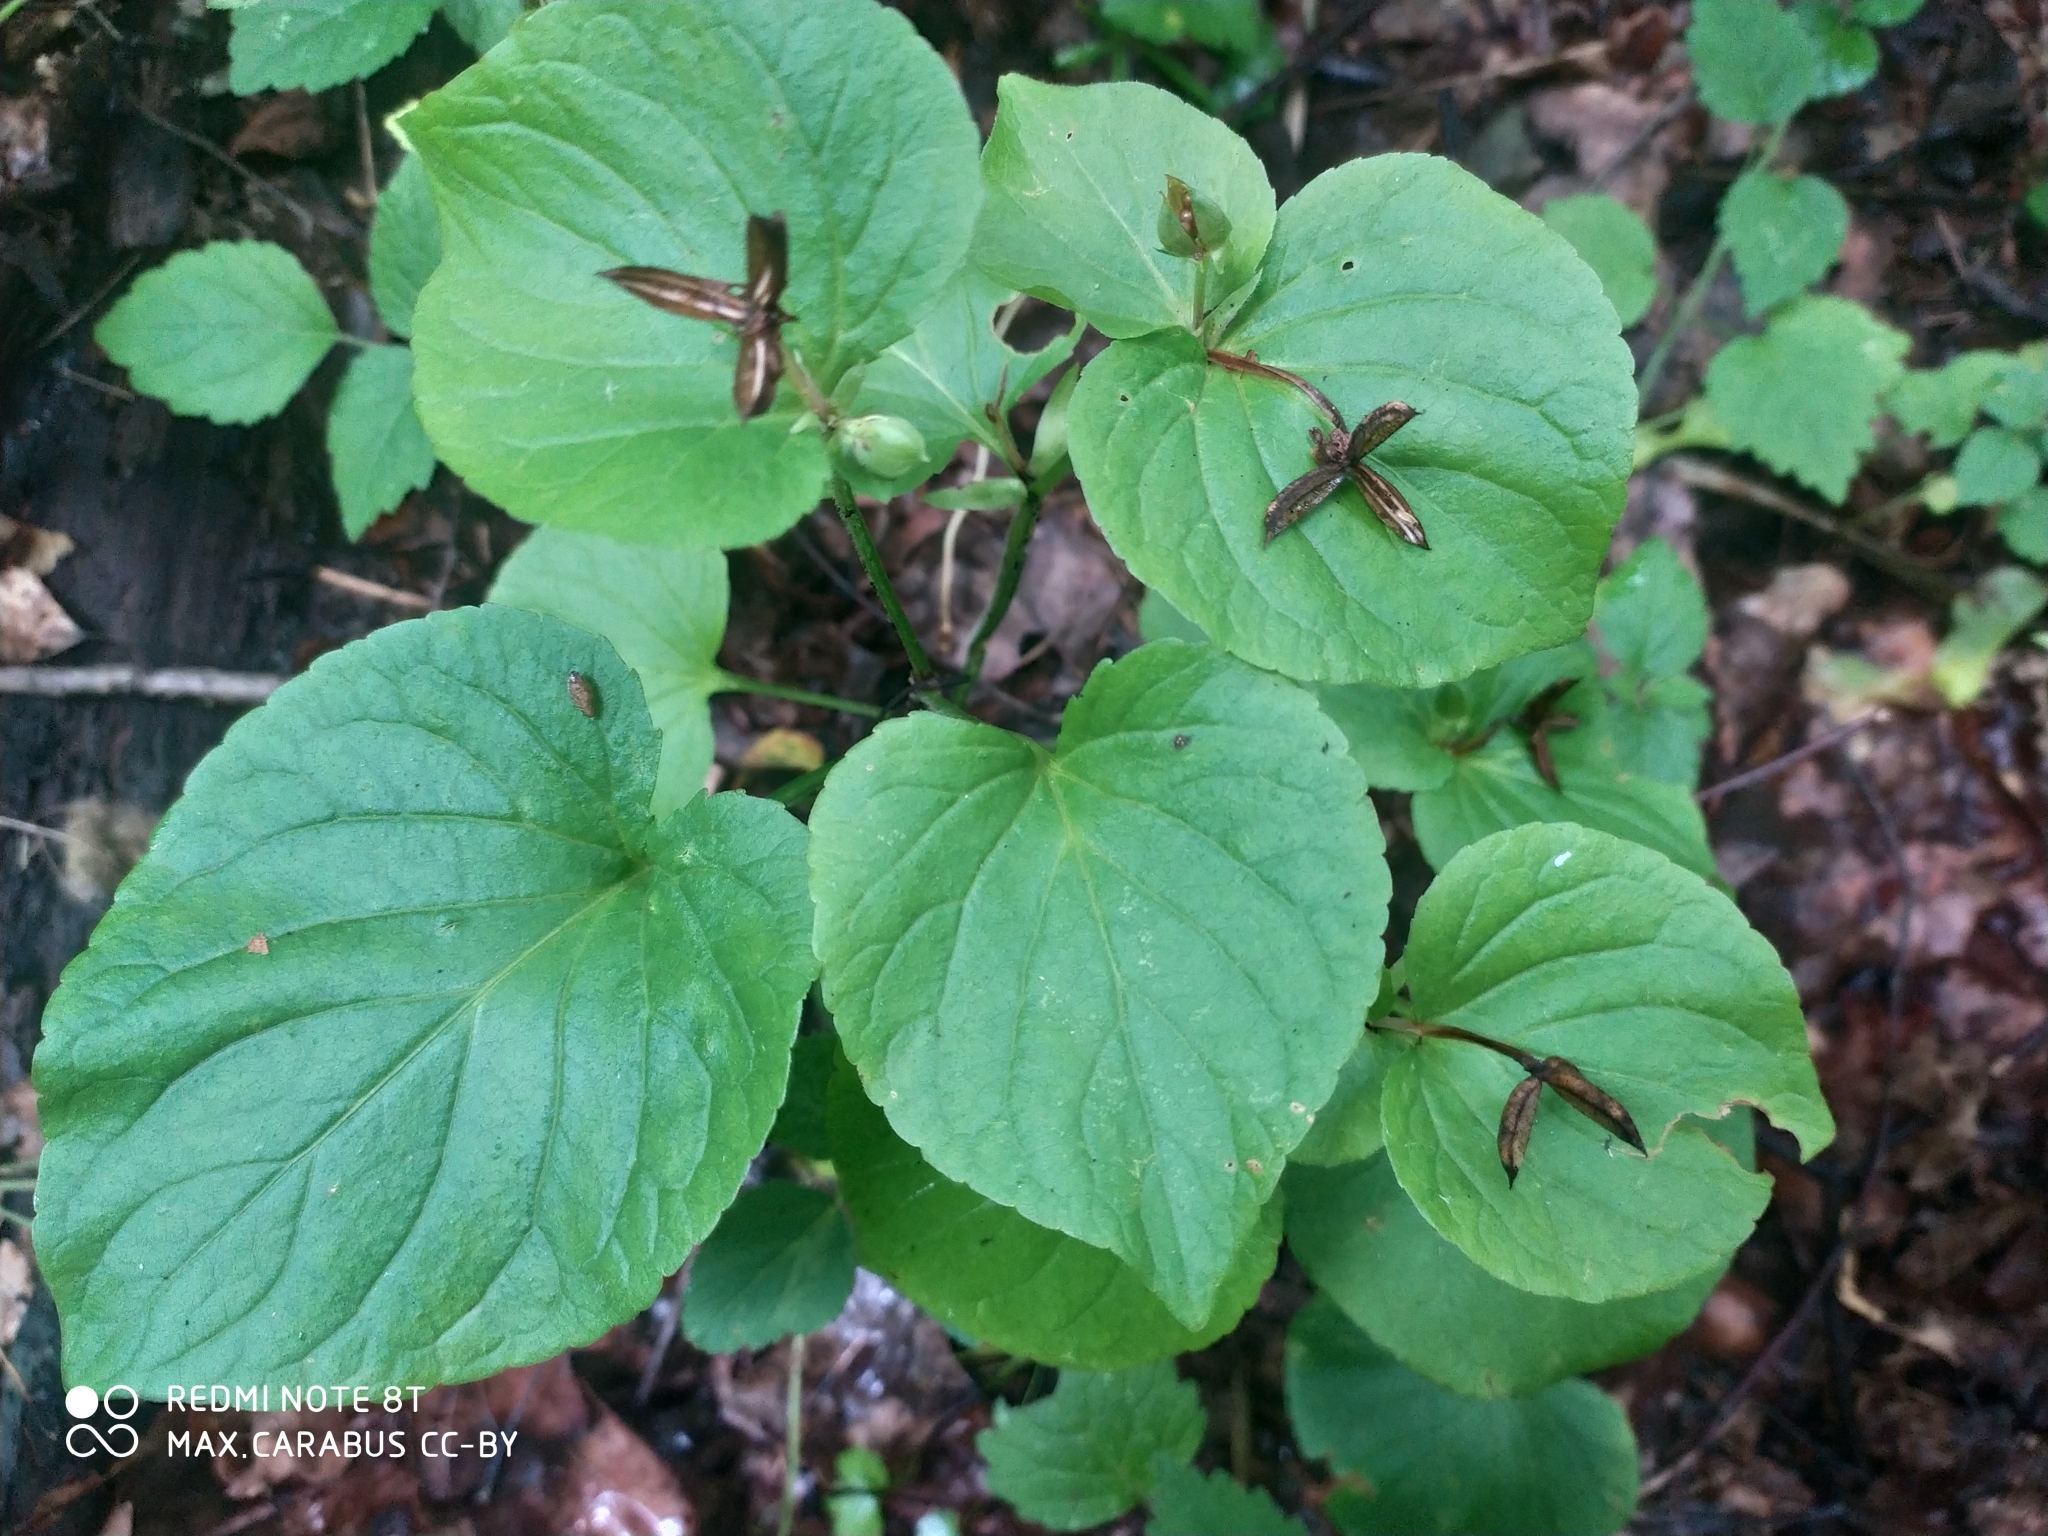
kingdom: Plantae
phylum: Tracheophyta
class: Magnoliopsida
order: Malpighiales
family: Violaceae
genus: Viola
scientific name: Viola mirabilis
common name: Wonder violet
